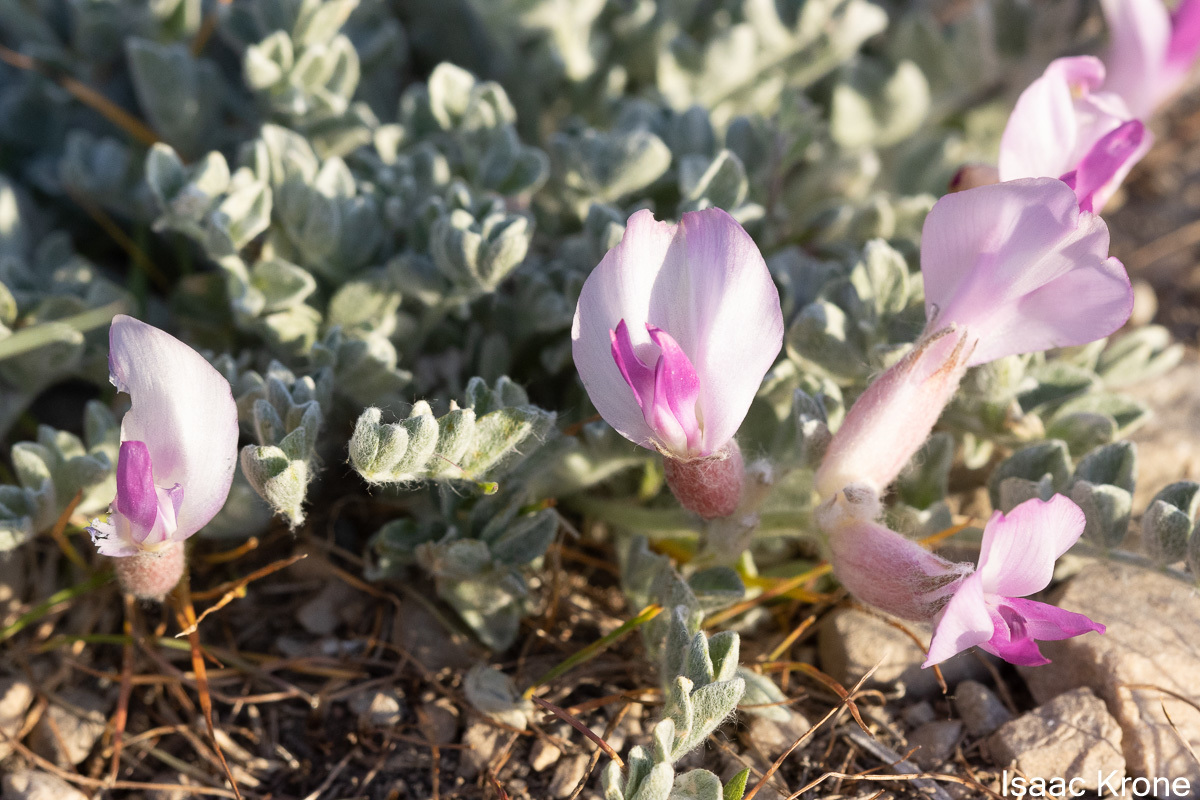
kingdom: Plantae
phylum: Tracheophyta
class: Magnoliopsida
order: Fabales
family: Fabaceae
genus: Astragalus
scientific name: Astragalus utahensis
